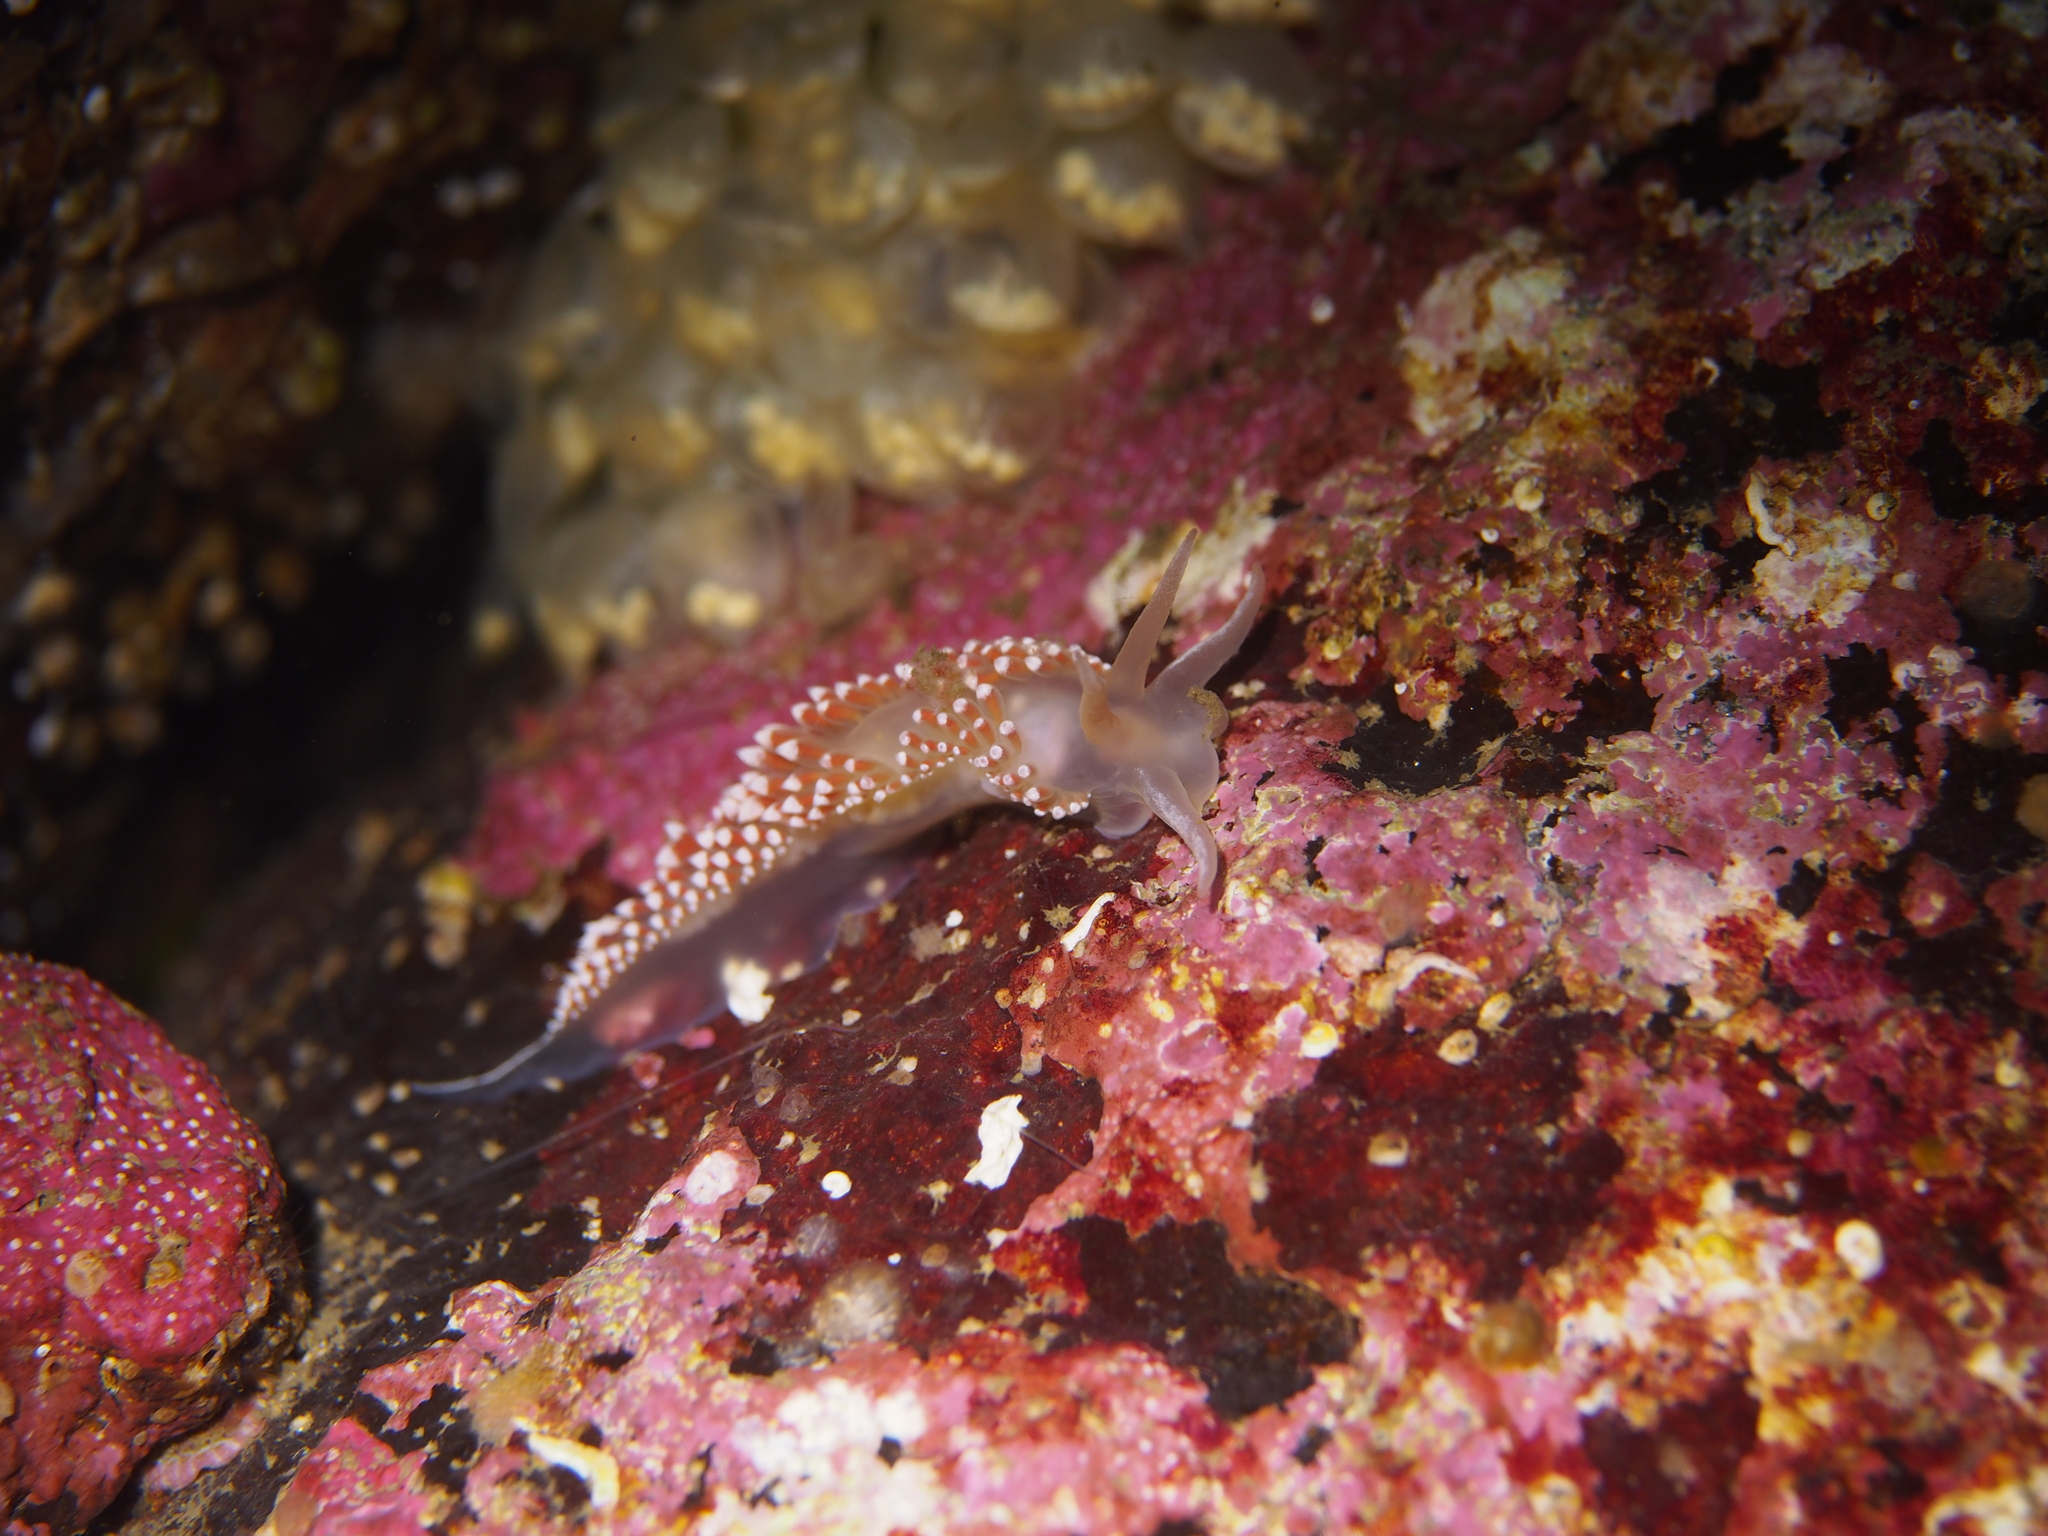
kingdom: Animalia
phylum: Mollusca
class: Gastropoda
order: Nudibranchia
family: Coryphellidae
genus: Coryphella
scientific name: Coryphella verrucosa
